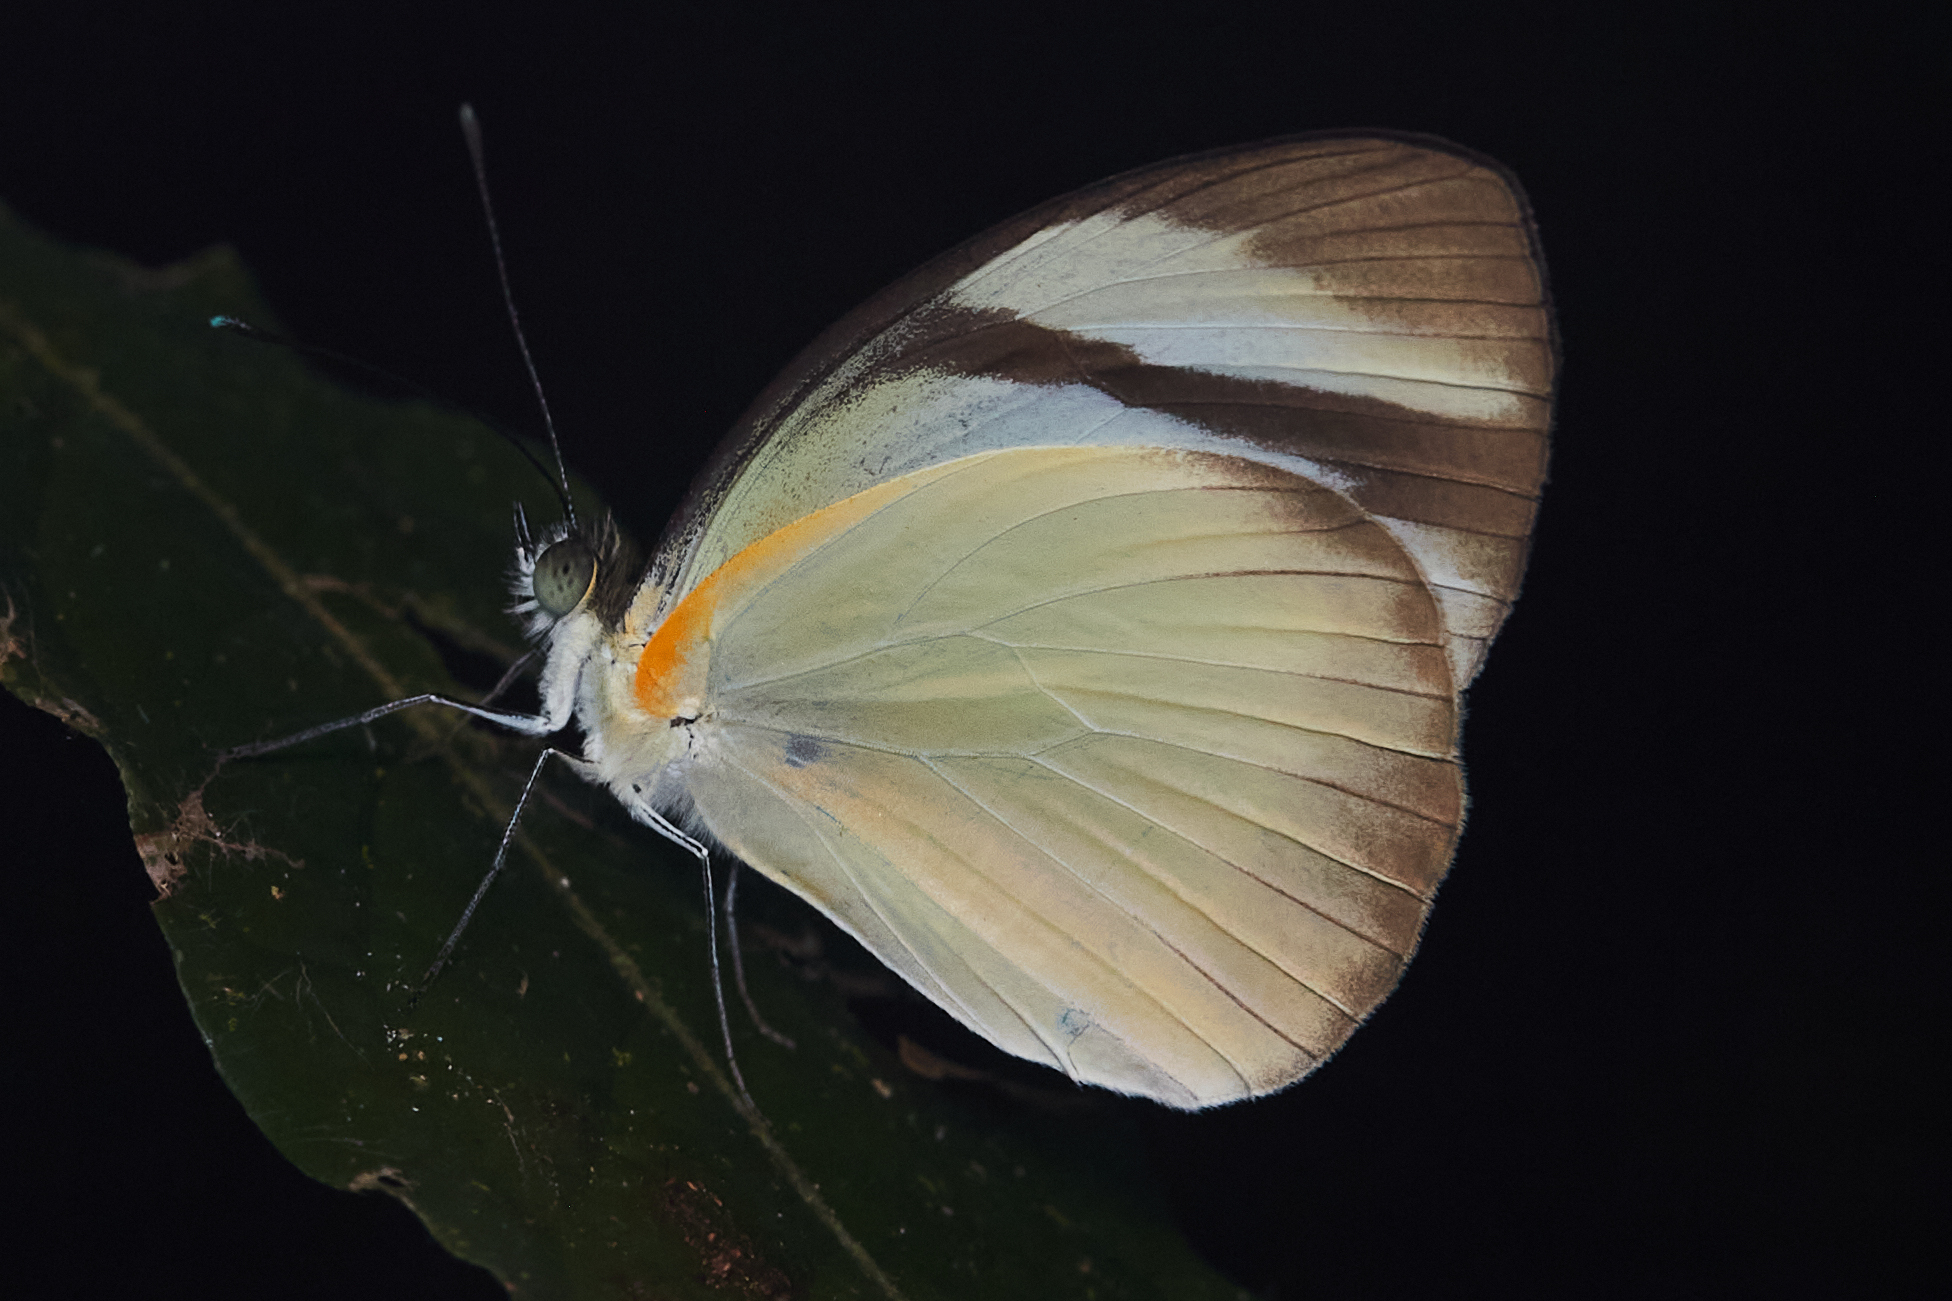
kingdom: Animalia
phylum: Arthropoda
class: Insecta
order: Lepidoptera
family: Pieridae
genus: Itaballia
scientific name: Itaballia demophile
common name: Cross-barred white
